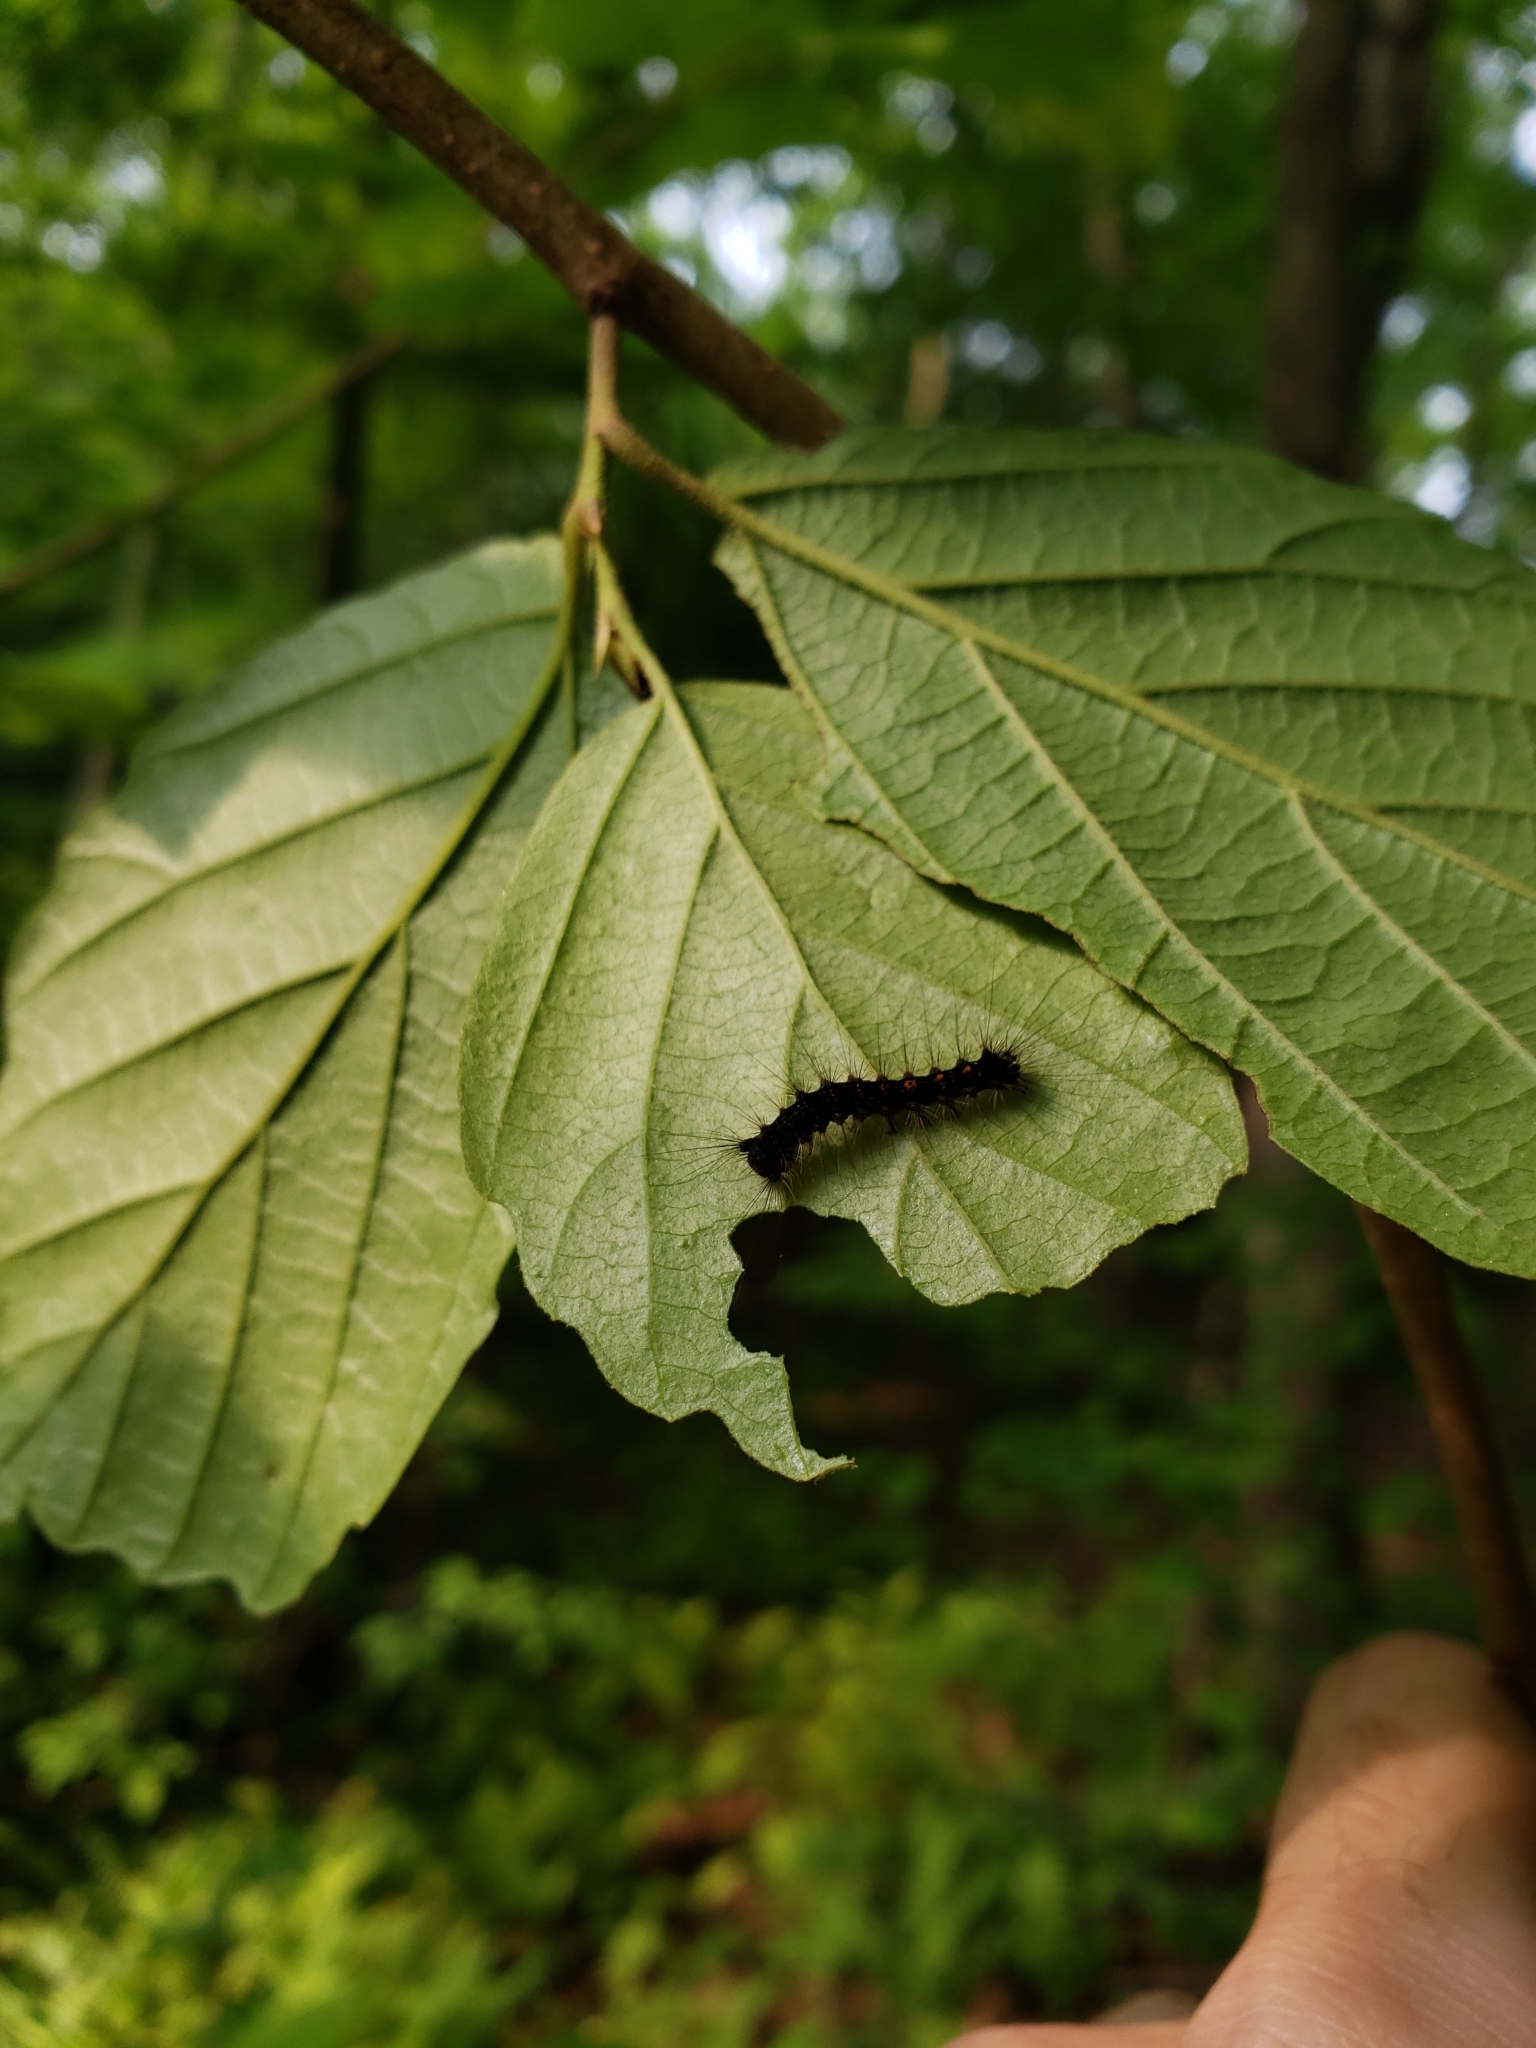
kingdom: Animalia
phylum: Arthropoda
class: Insecta
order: Lepidoptera
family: Erebidae
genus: Lymantria
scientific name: Lymantria dispar
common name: Gypsy moth
